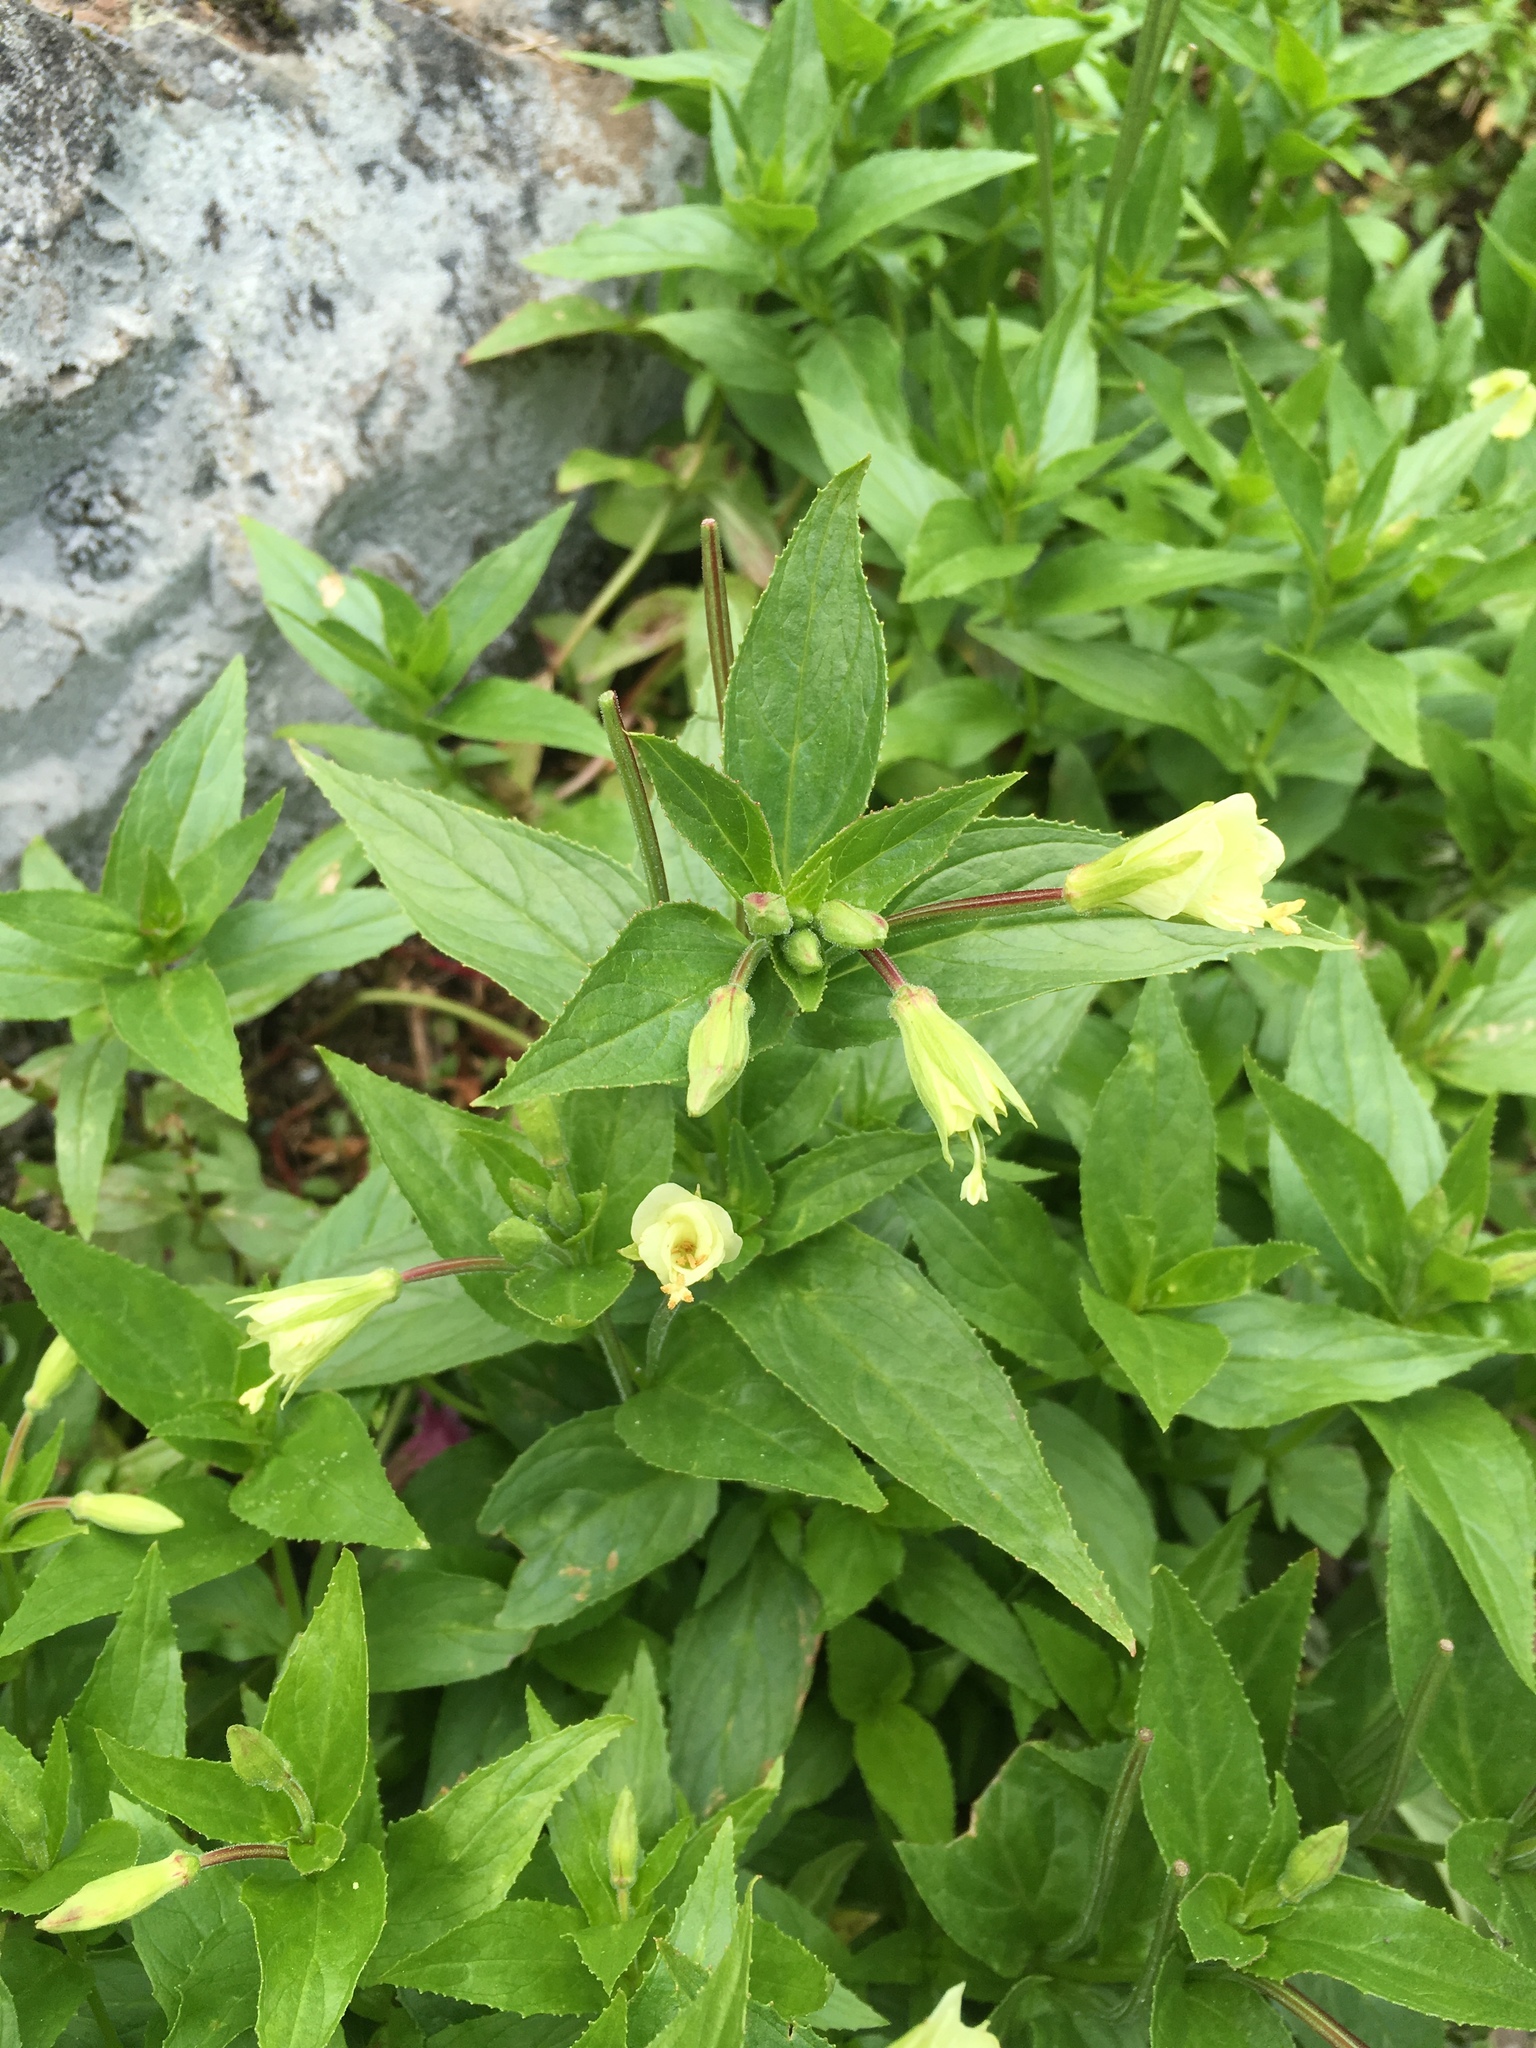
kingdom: Plantae
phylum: Tracheophyta
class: Magnoliopsida
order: Myrtales
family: Onagraceae
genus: Epilobium
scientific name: Epilobium luteum
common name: Yellow willowherb
